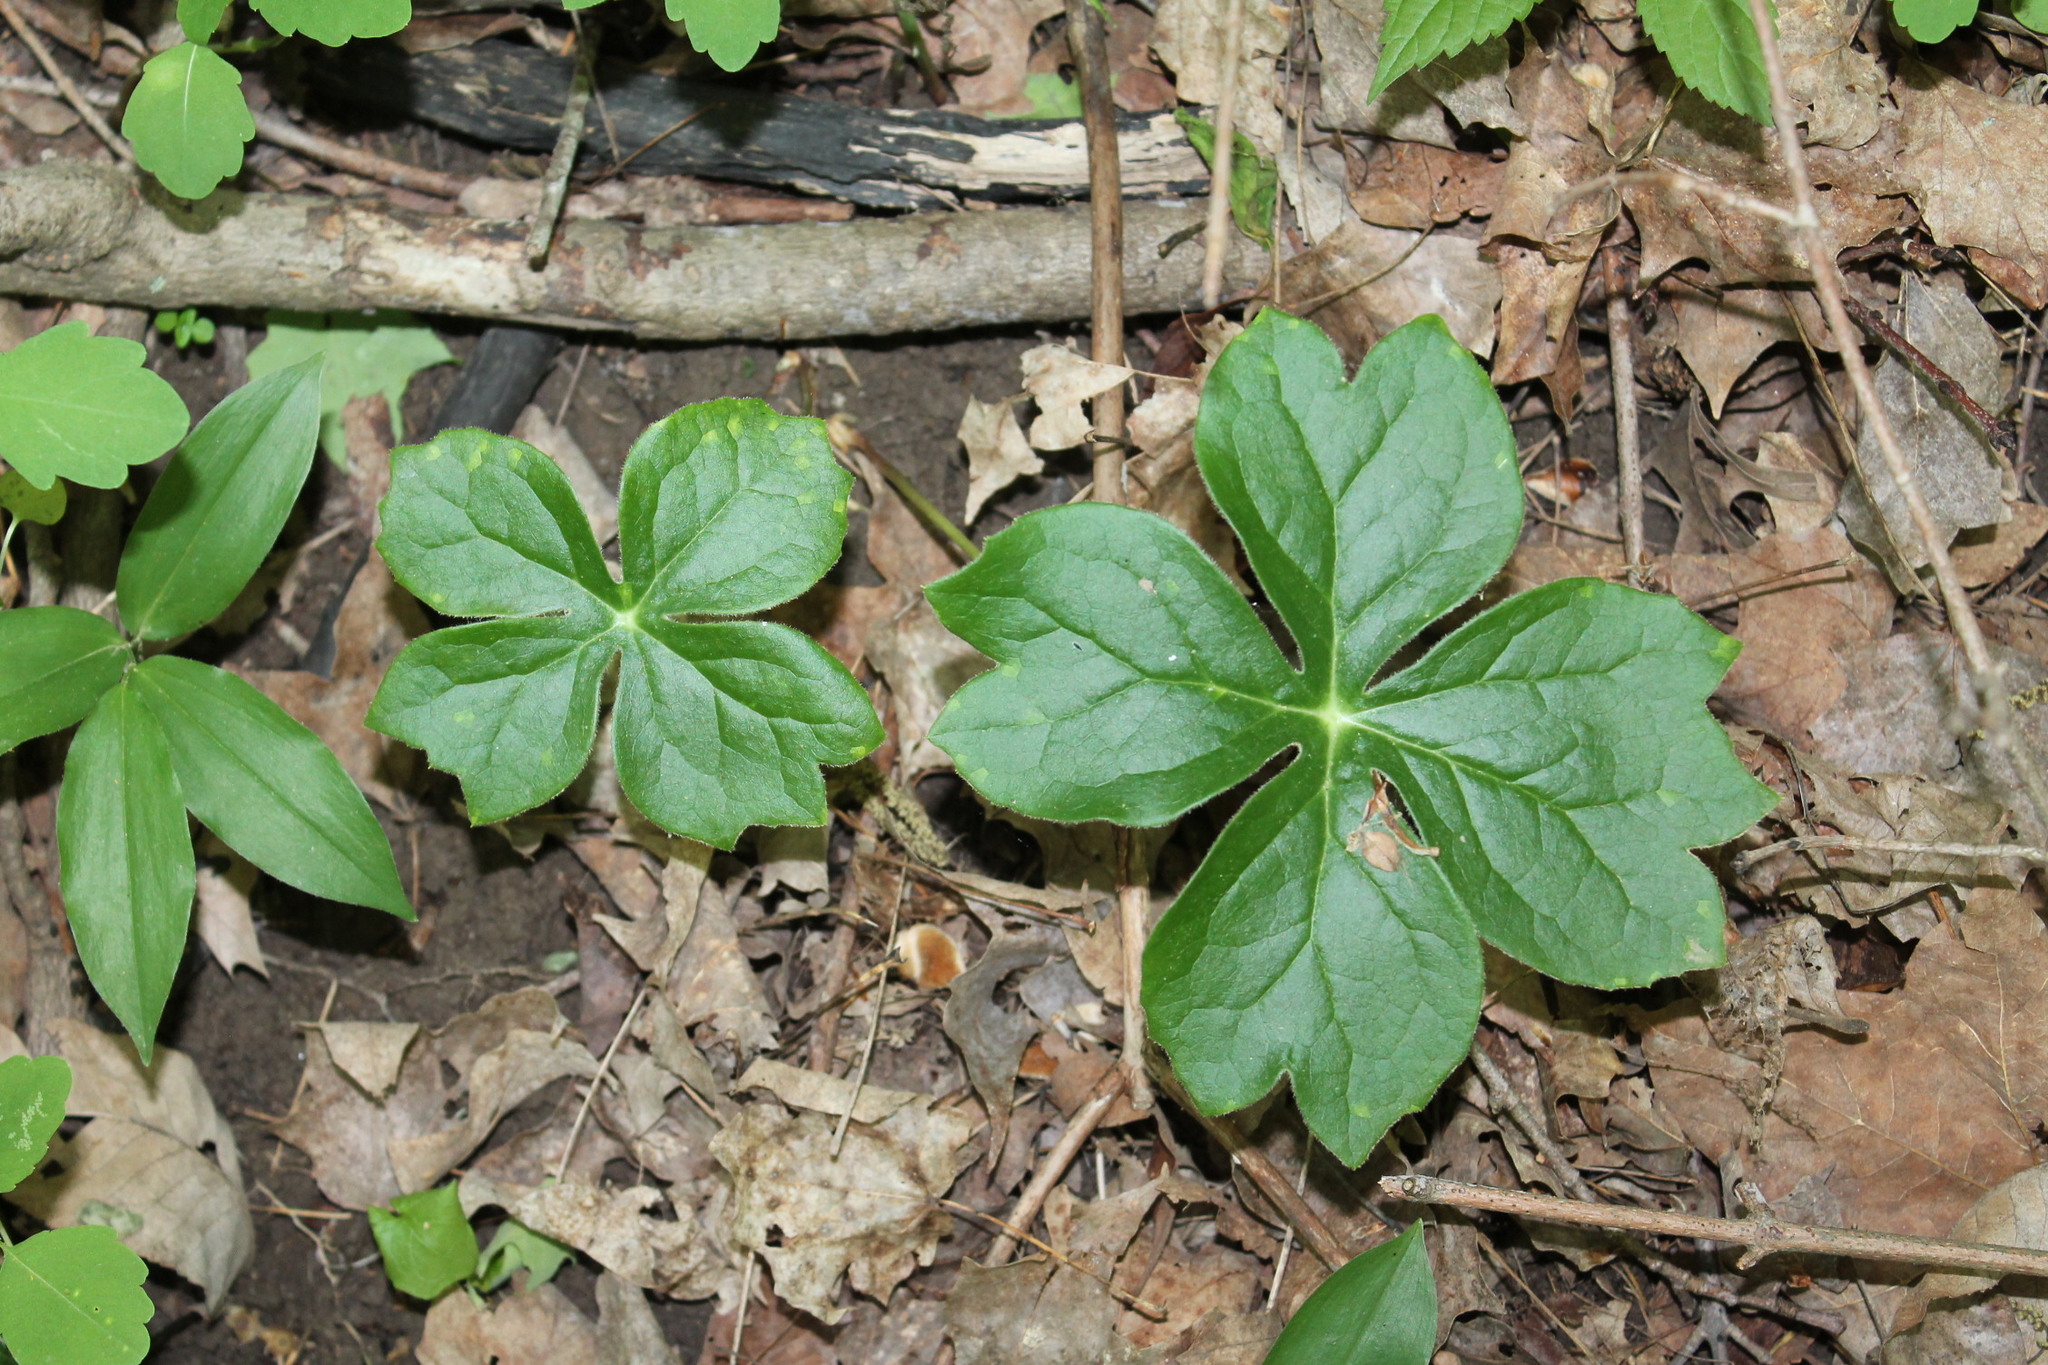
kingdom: Plantae
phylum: Tracheophyta
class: Magnoliopsida
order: Ranunculales
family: Berberidaceae
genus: Podophyllum
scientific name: Podophyllum peltatum
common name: Wild mandrake
